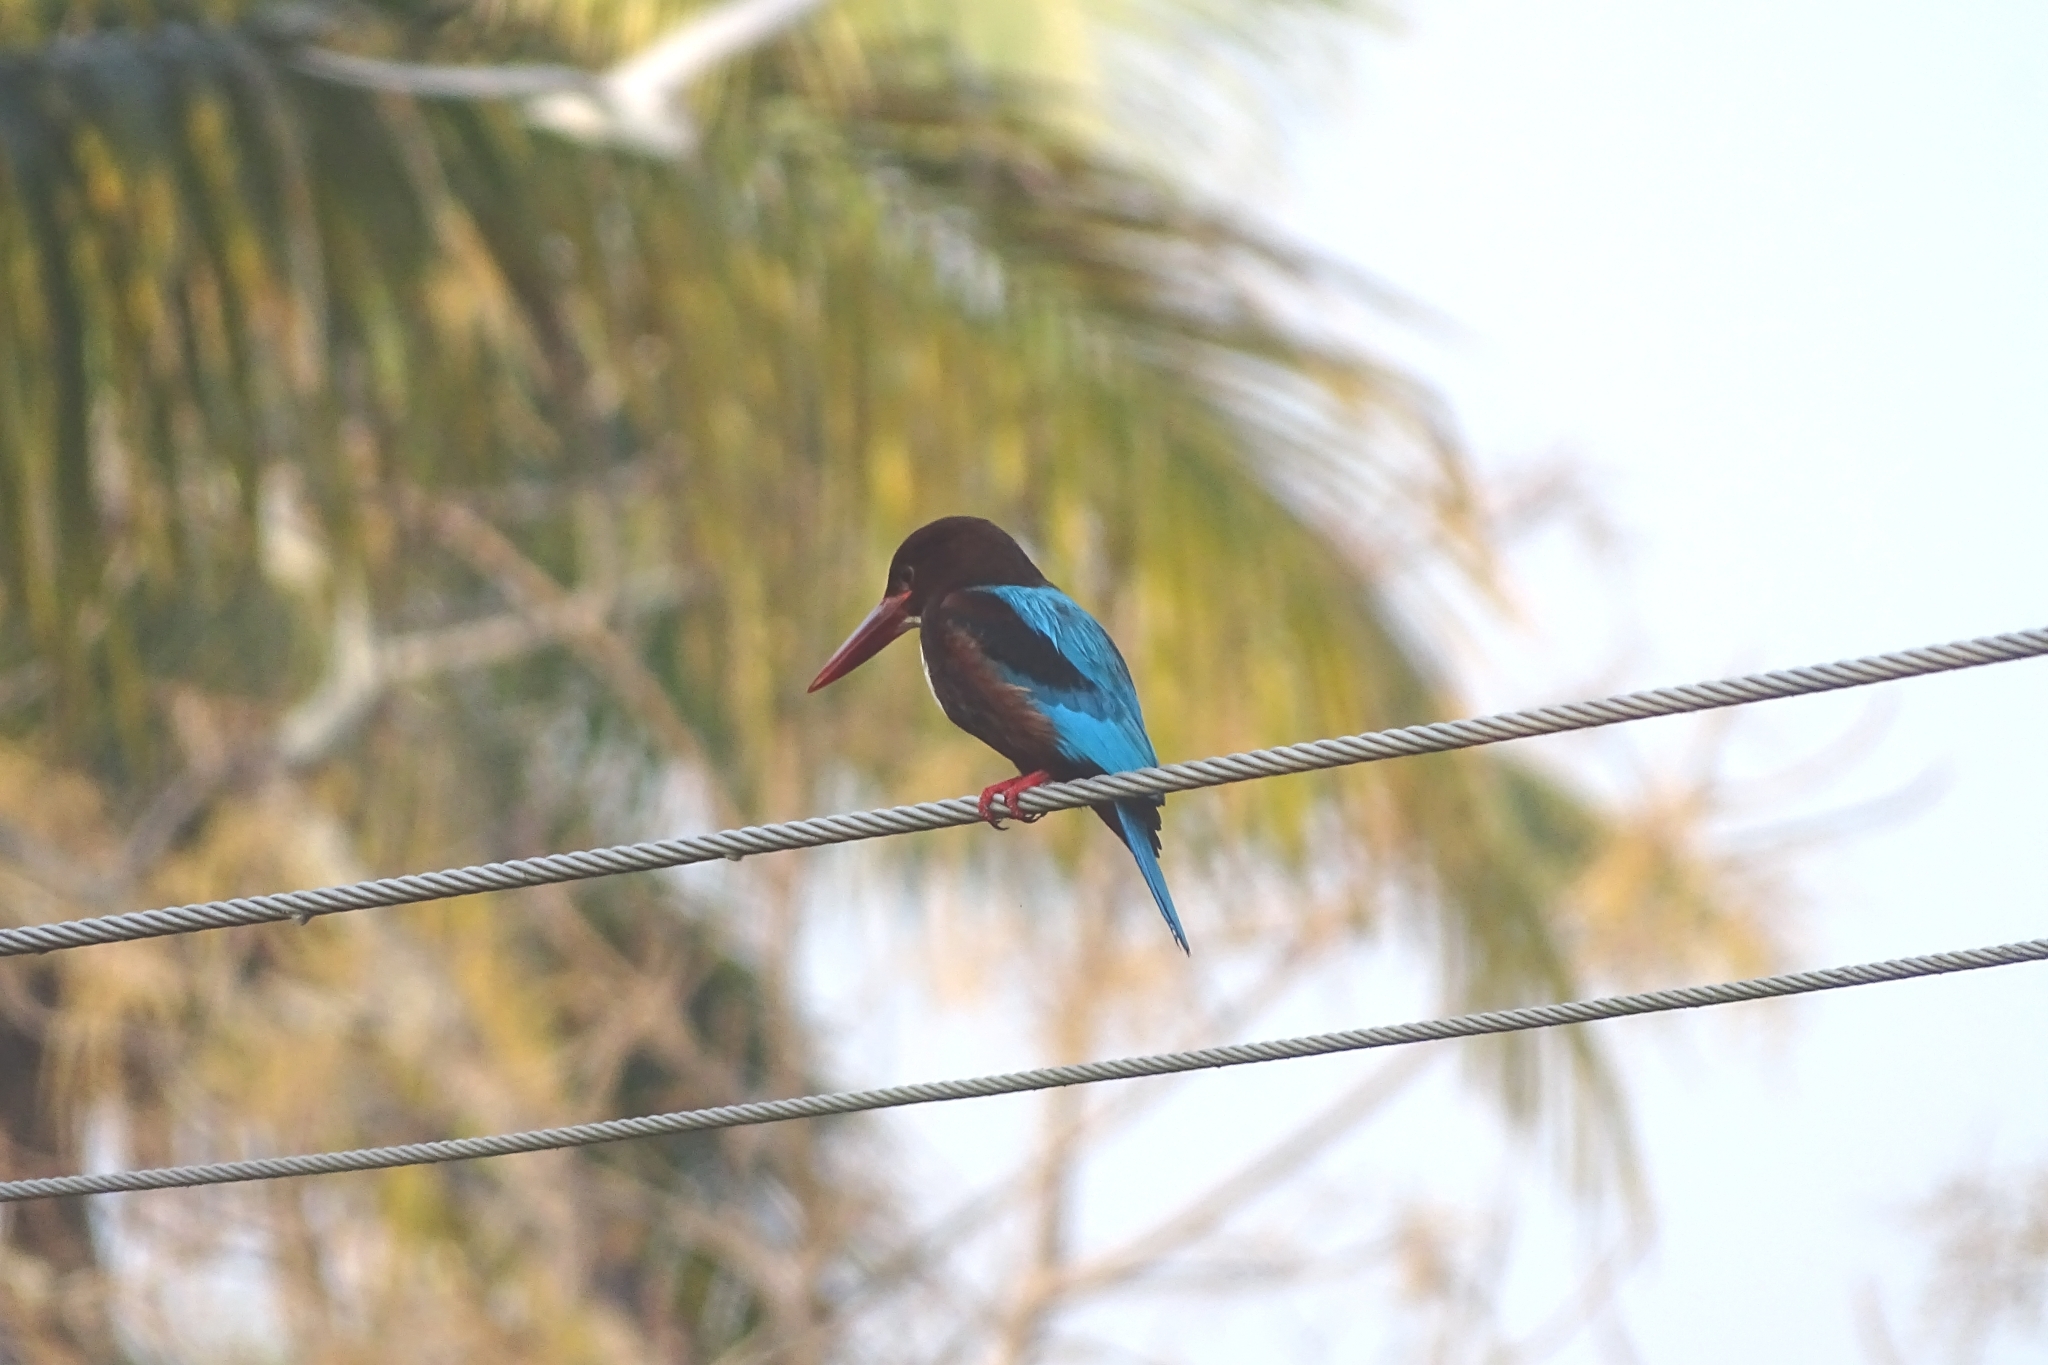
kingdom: Animalia
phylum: Chordata
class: Aves
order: Coraciiformes
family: Alcedinidae
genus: Halcyon
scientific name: Halcyon smyrnensis
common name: White-throated kingfisher
